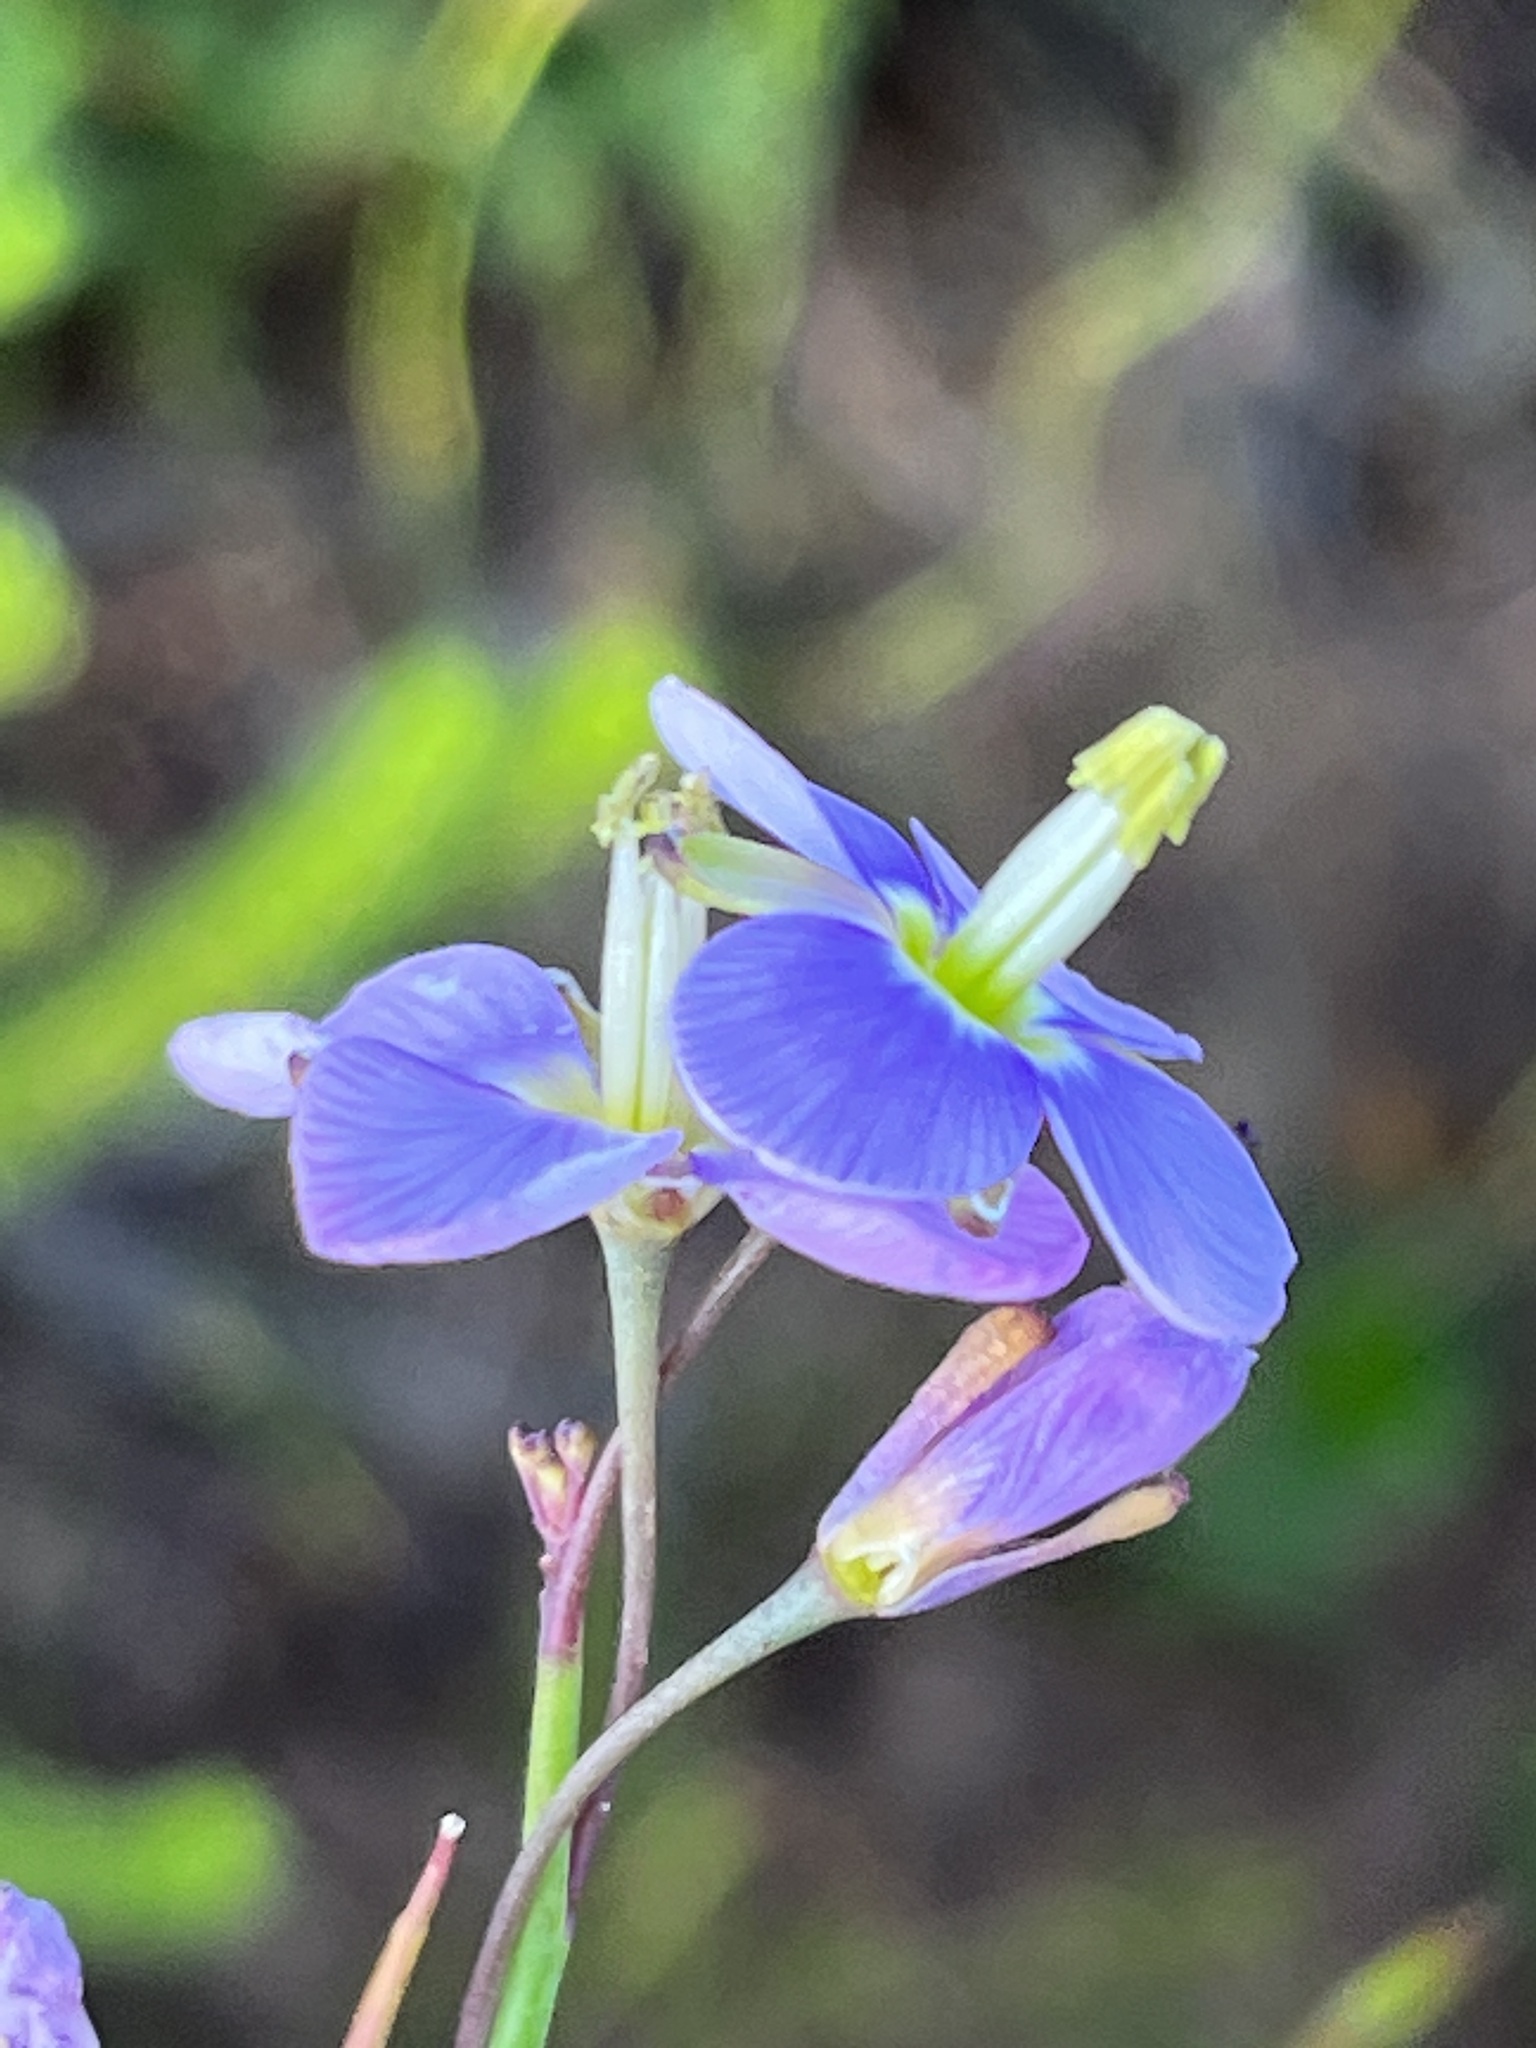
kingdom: Plantae
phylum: Tracheophyta
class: Magnoliopsida
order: Brassicales
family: Brassicaceae
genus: Heliophila
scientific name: Heliophila linearis
